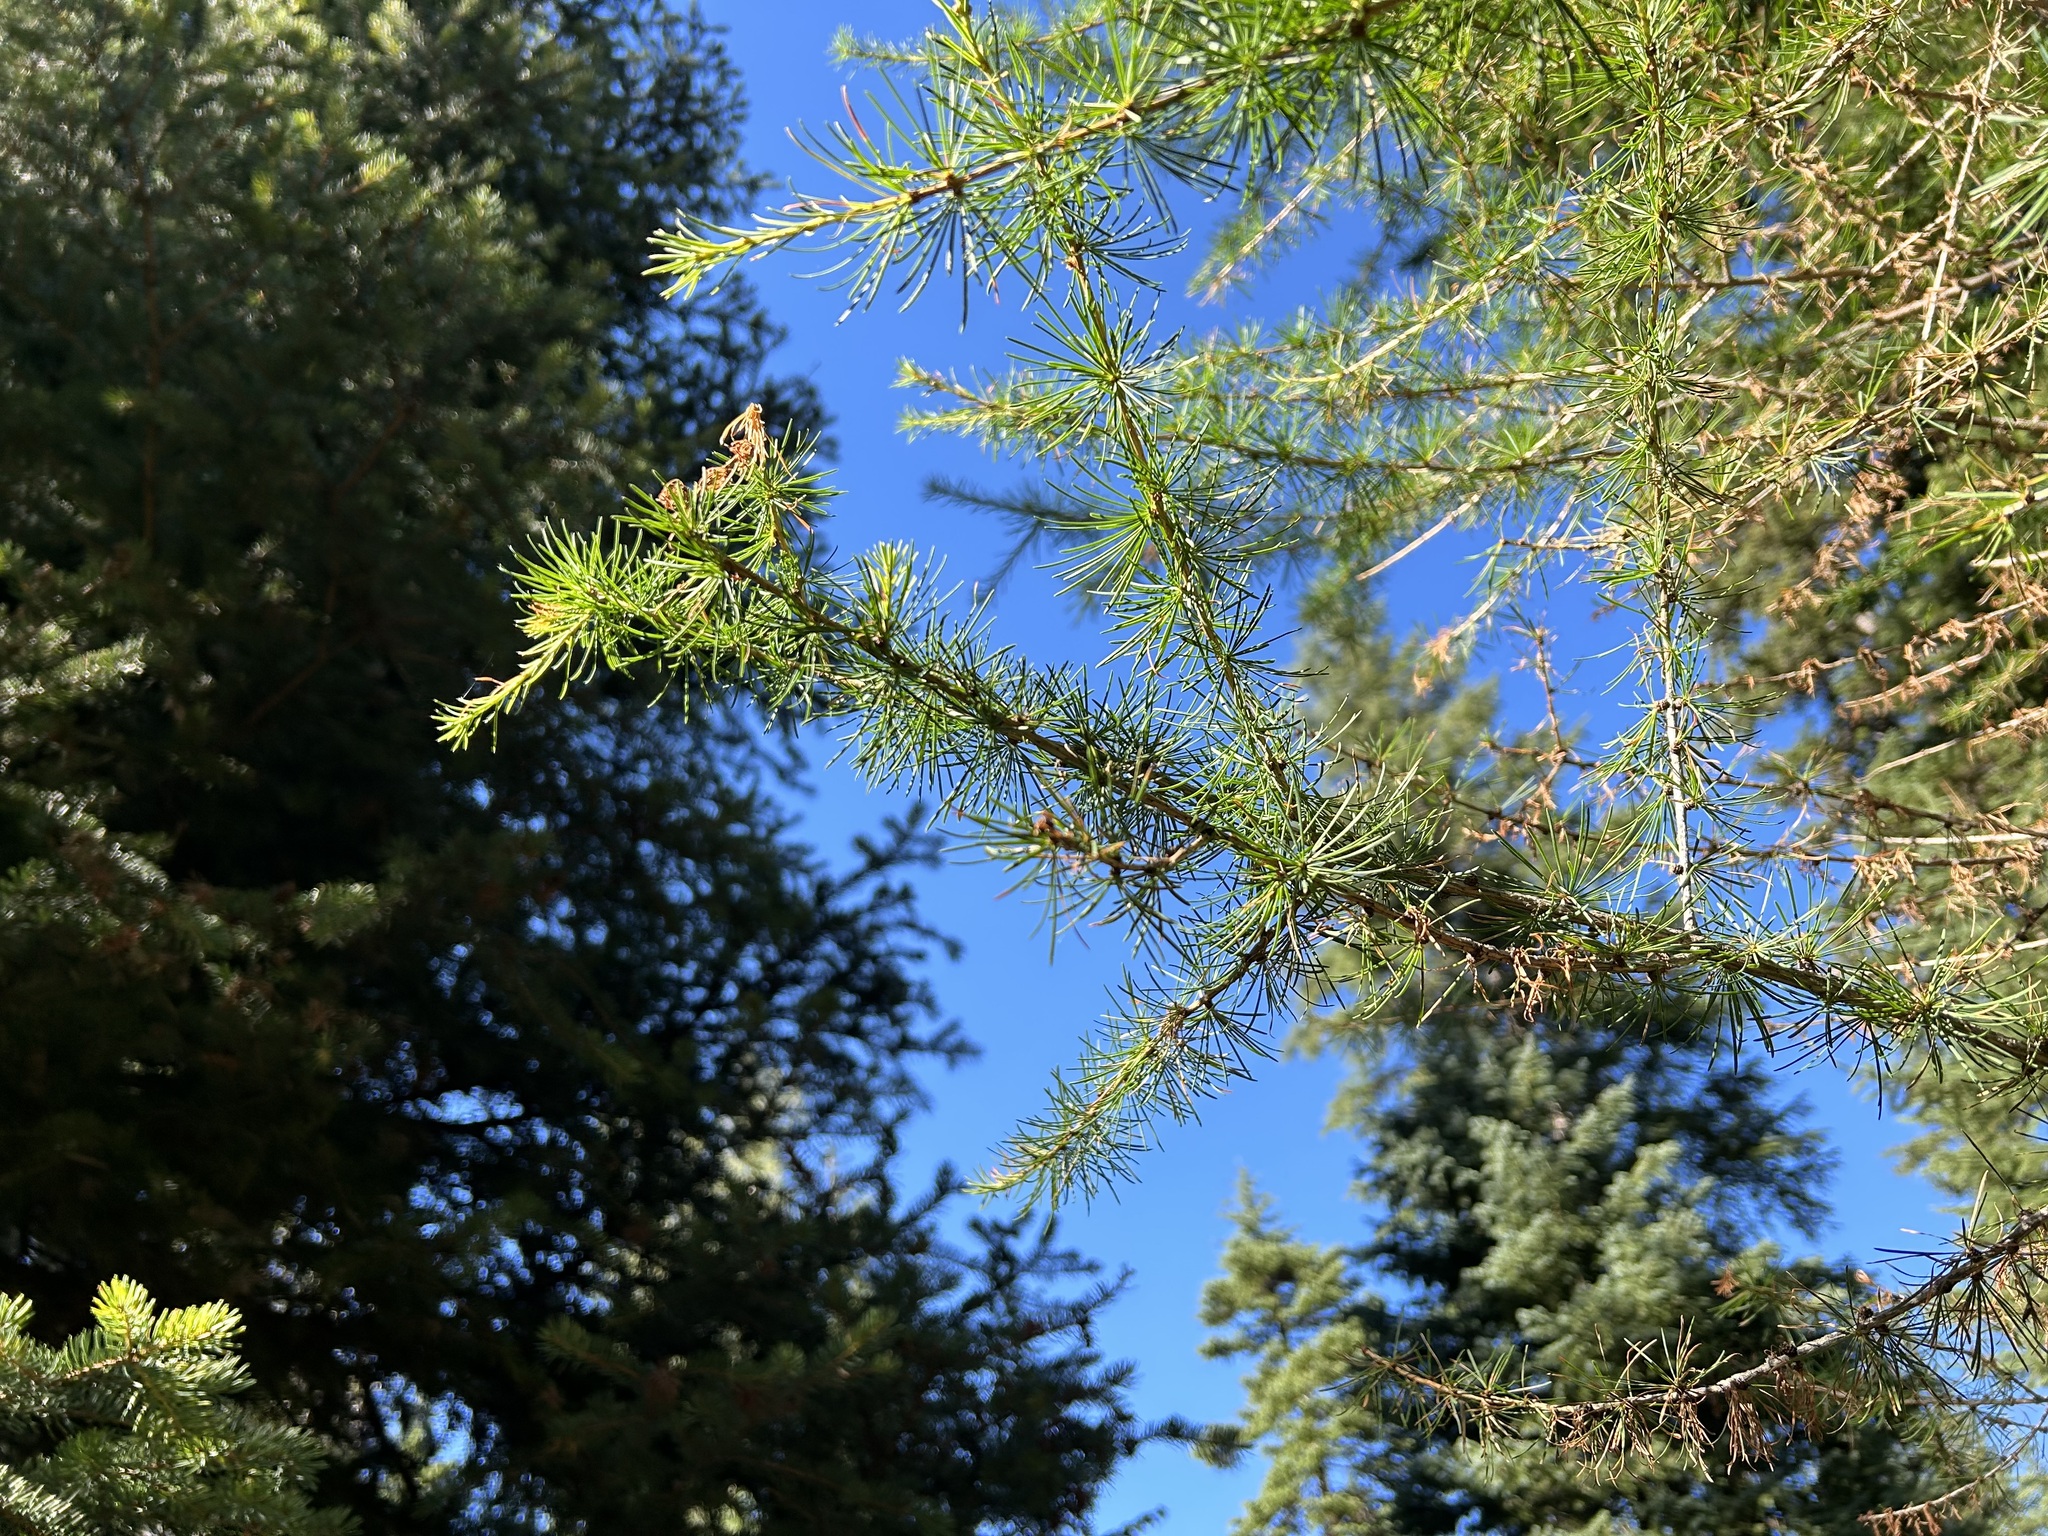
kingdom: Plantae
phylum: Tracheophyta
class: Pinopsida
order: Pinales
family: Pinaceae
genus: Larix
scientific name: Larix occidentalis
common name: Western larch
